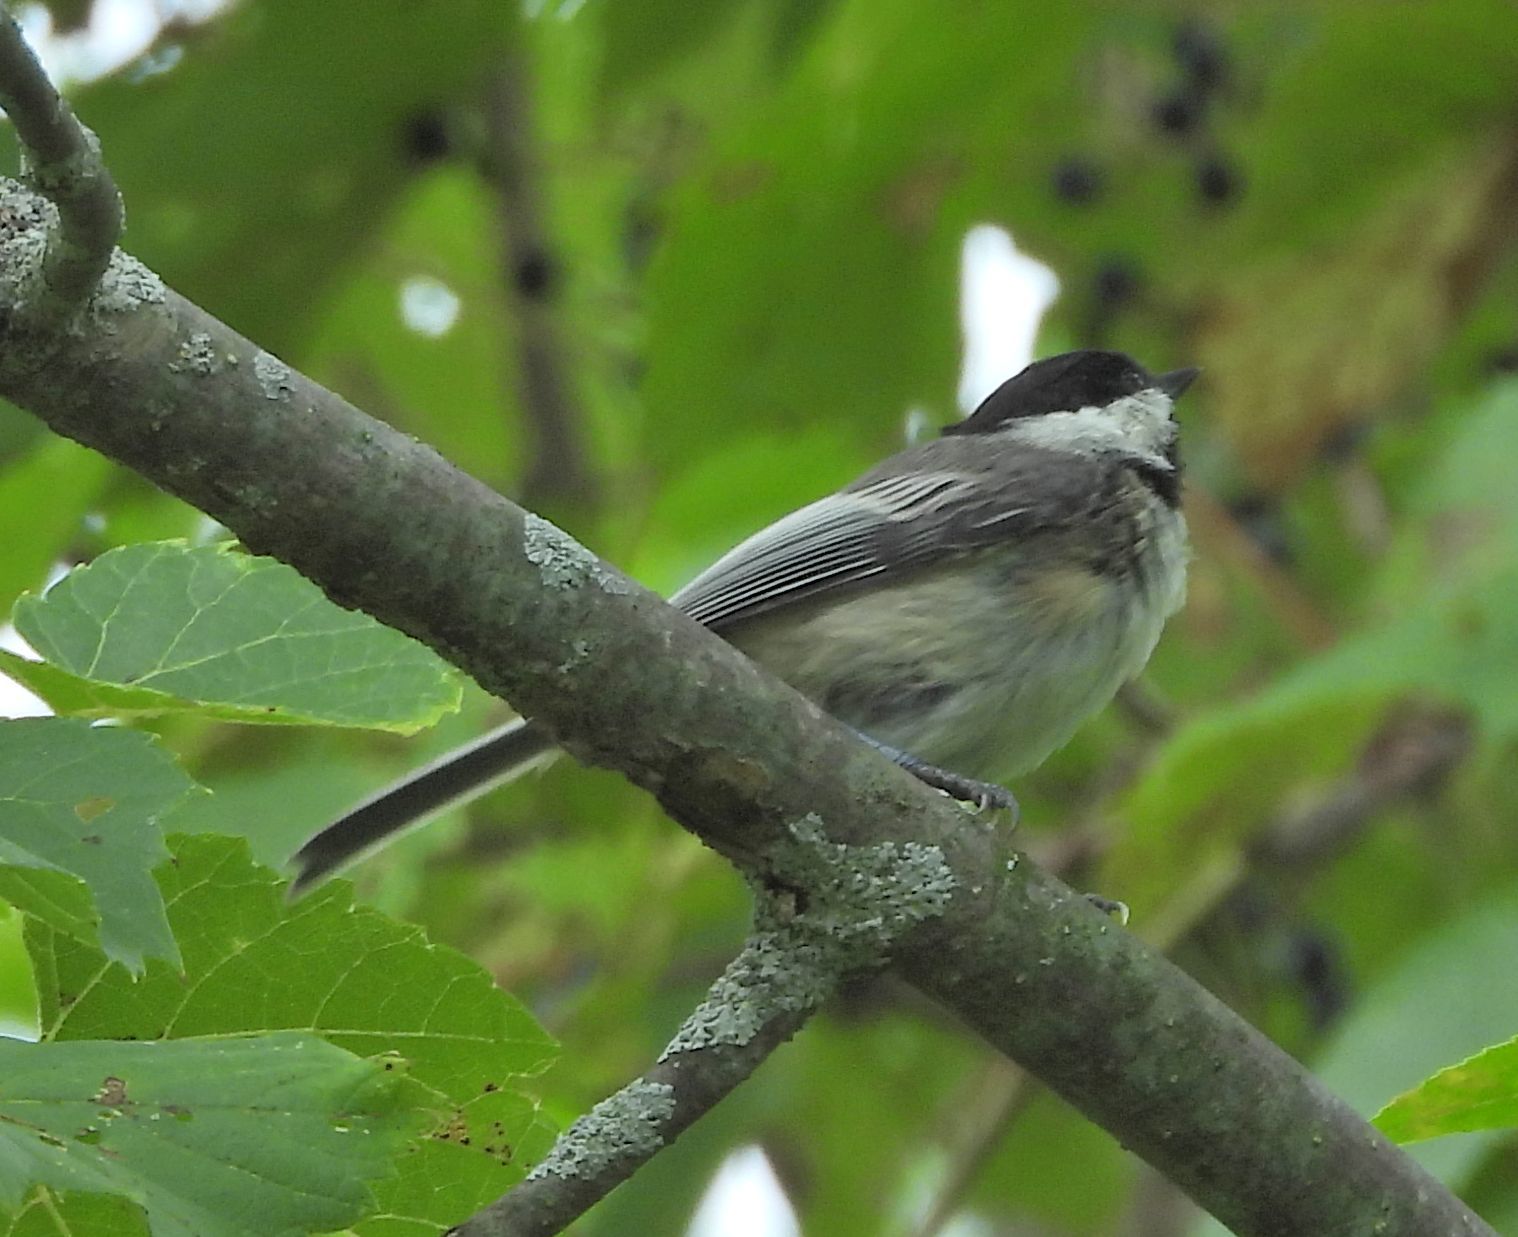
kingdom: Animalia
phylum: Chordata
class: Aves
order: Passeriformes
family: Paridae
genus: Poecile
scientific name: Poecile atricapillus
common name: Black-capped chickadee
